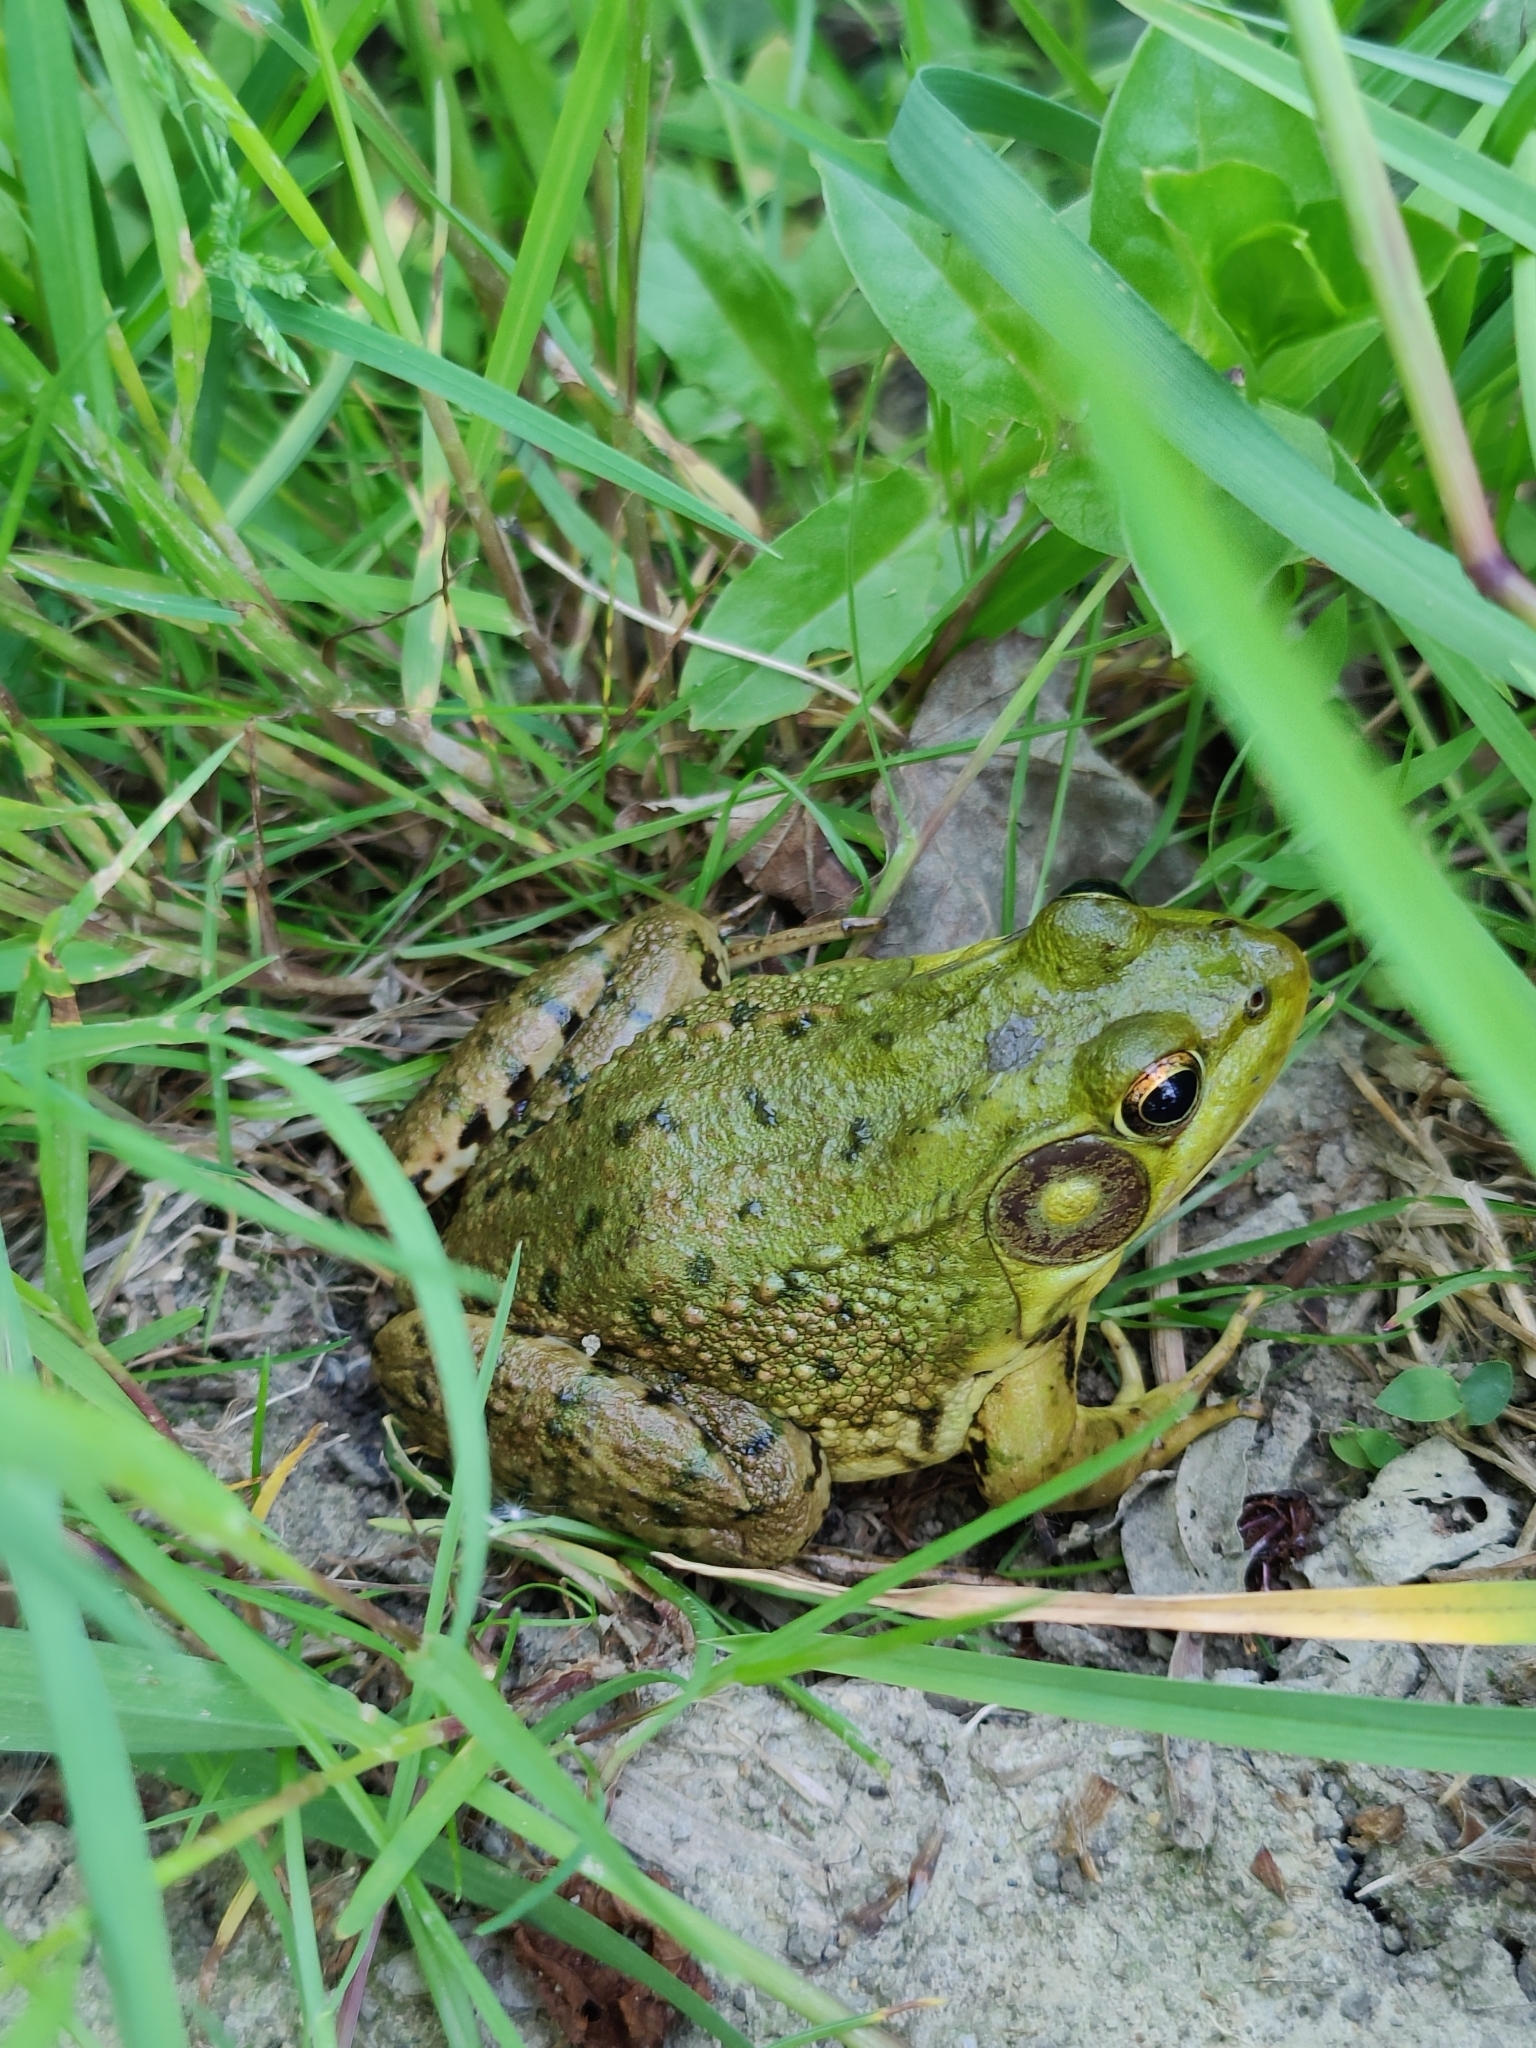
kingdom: Animalia
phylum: Chordata
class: Amphibia
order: Anura
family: Ranidae
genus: Lithobates
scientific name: Lithobates clamitans
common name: Green frog
